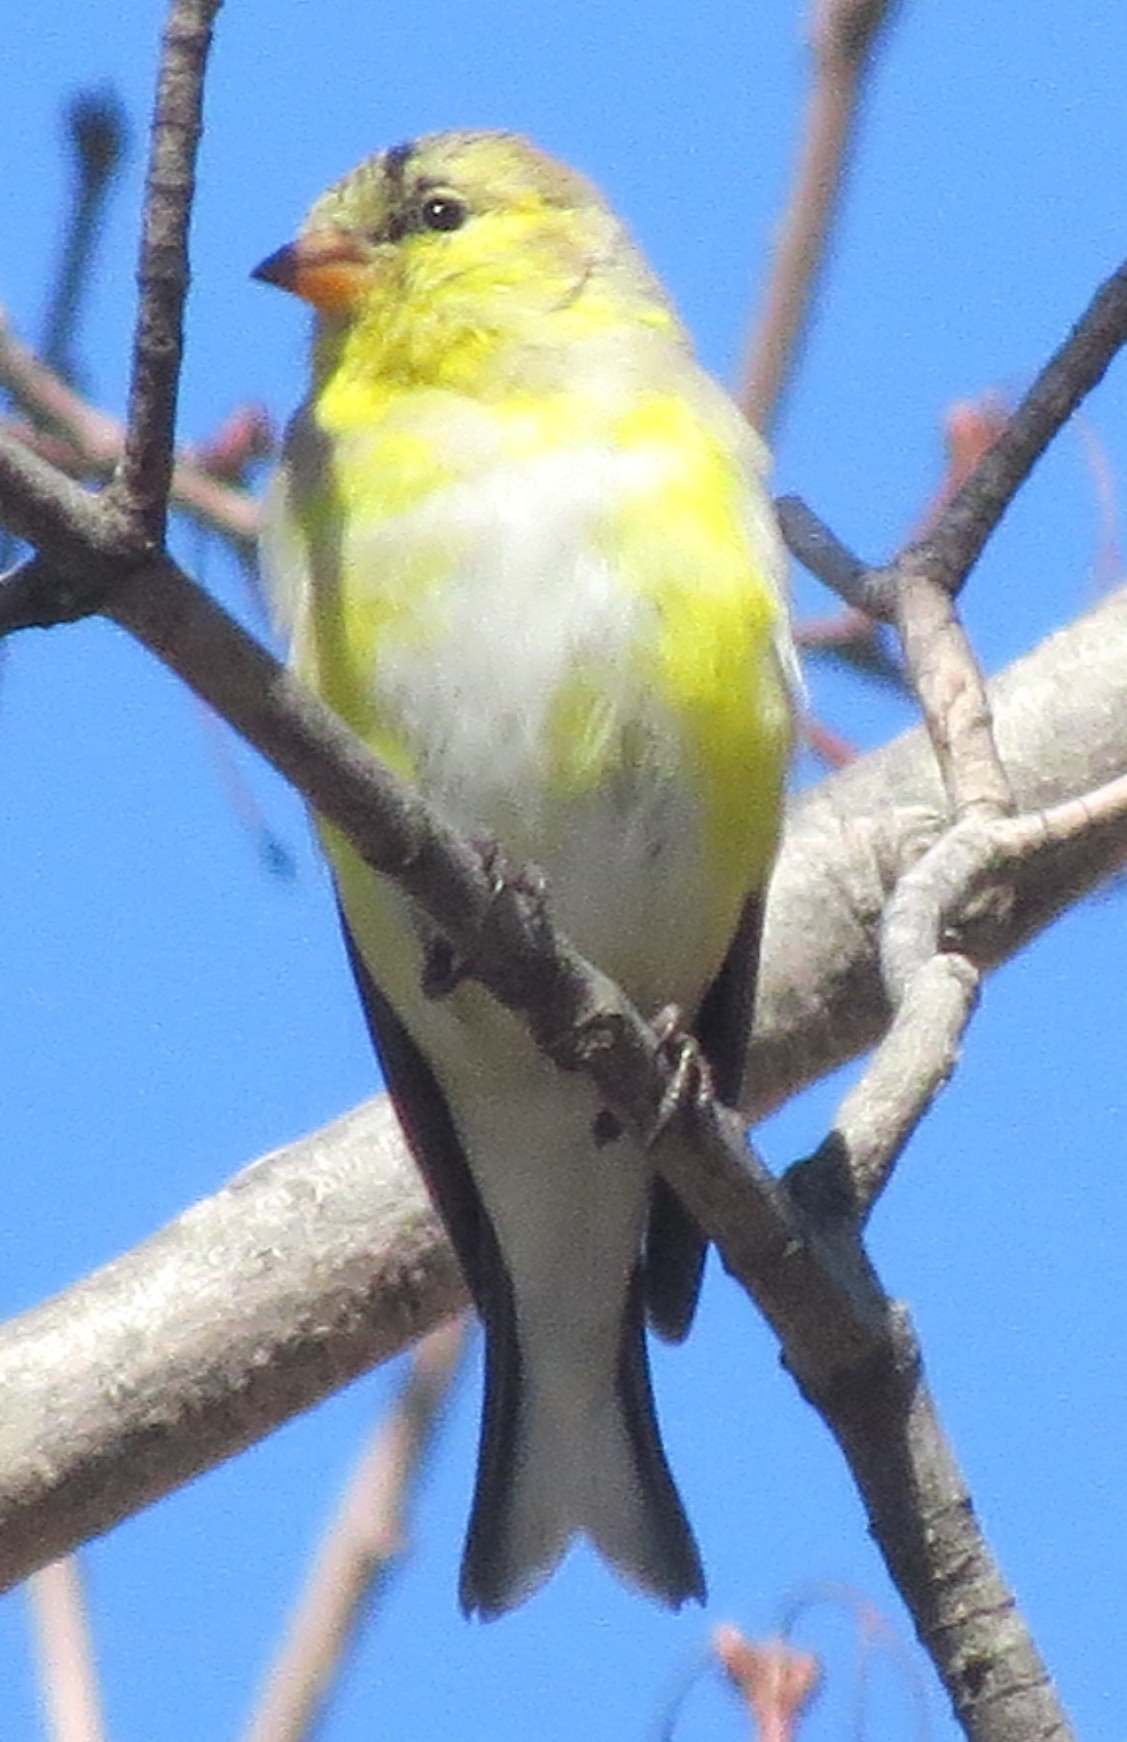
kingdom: Animalia
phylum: Chordata
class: Aves
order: Passeriformes
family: Fringillidae
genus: Spinus
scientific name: Spinus tristis
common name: American goldfinch
